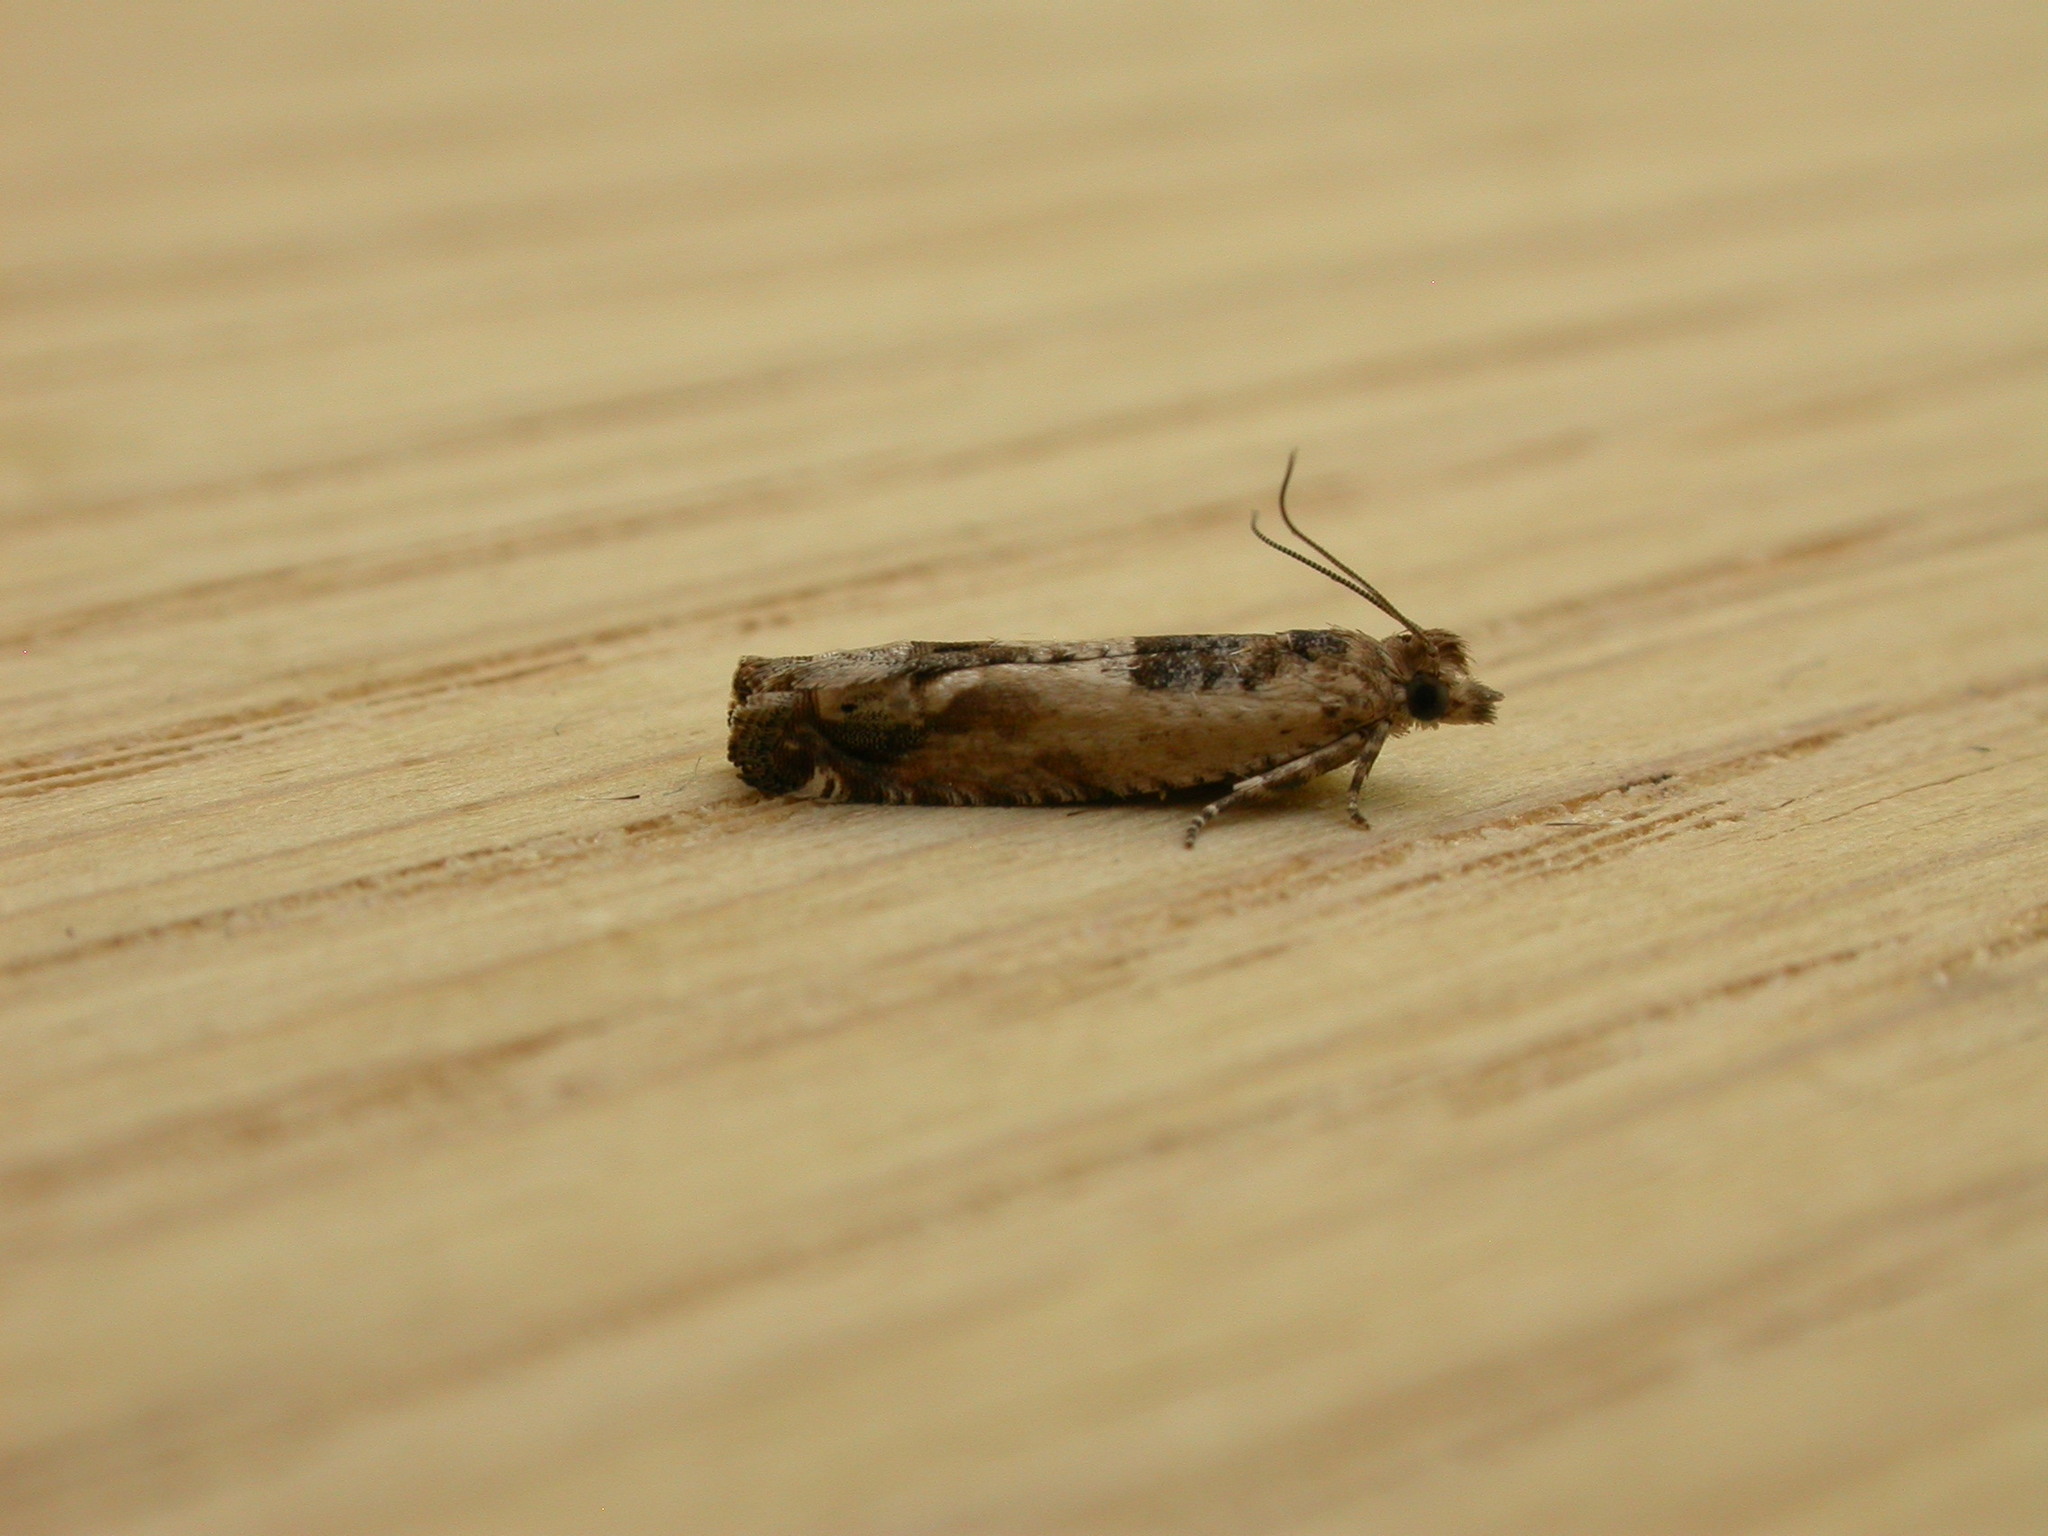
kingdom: Animalia
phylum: Arthropoda
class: Insecta
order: Lepidoptera
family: Tortricidae
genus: Crocidosema
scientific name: Crocidosema plebejana
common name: Southern bell
